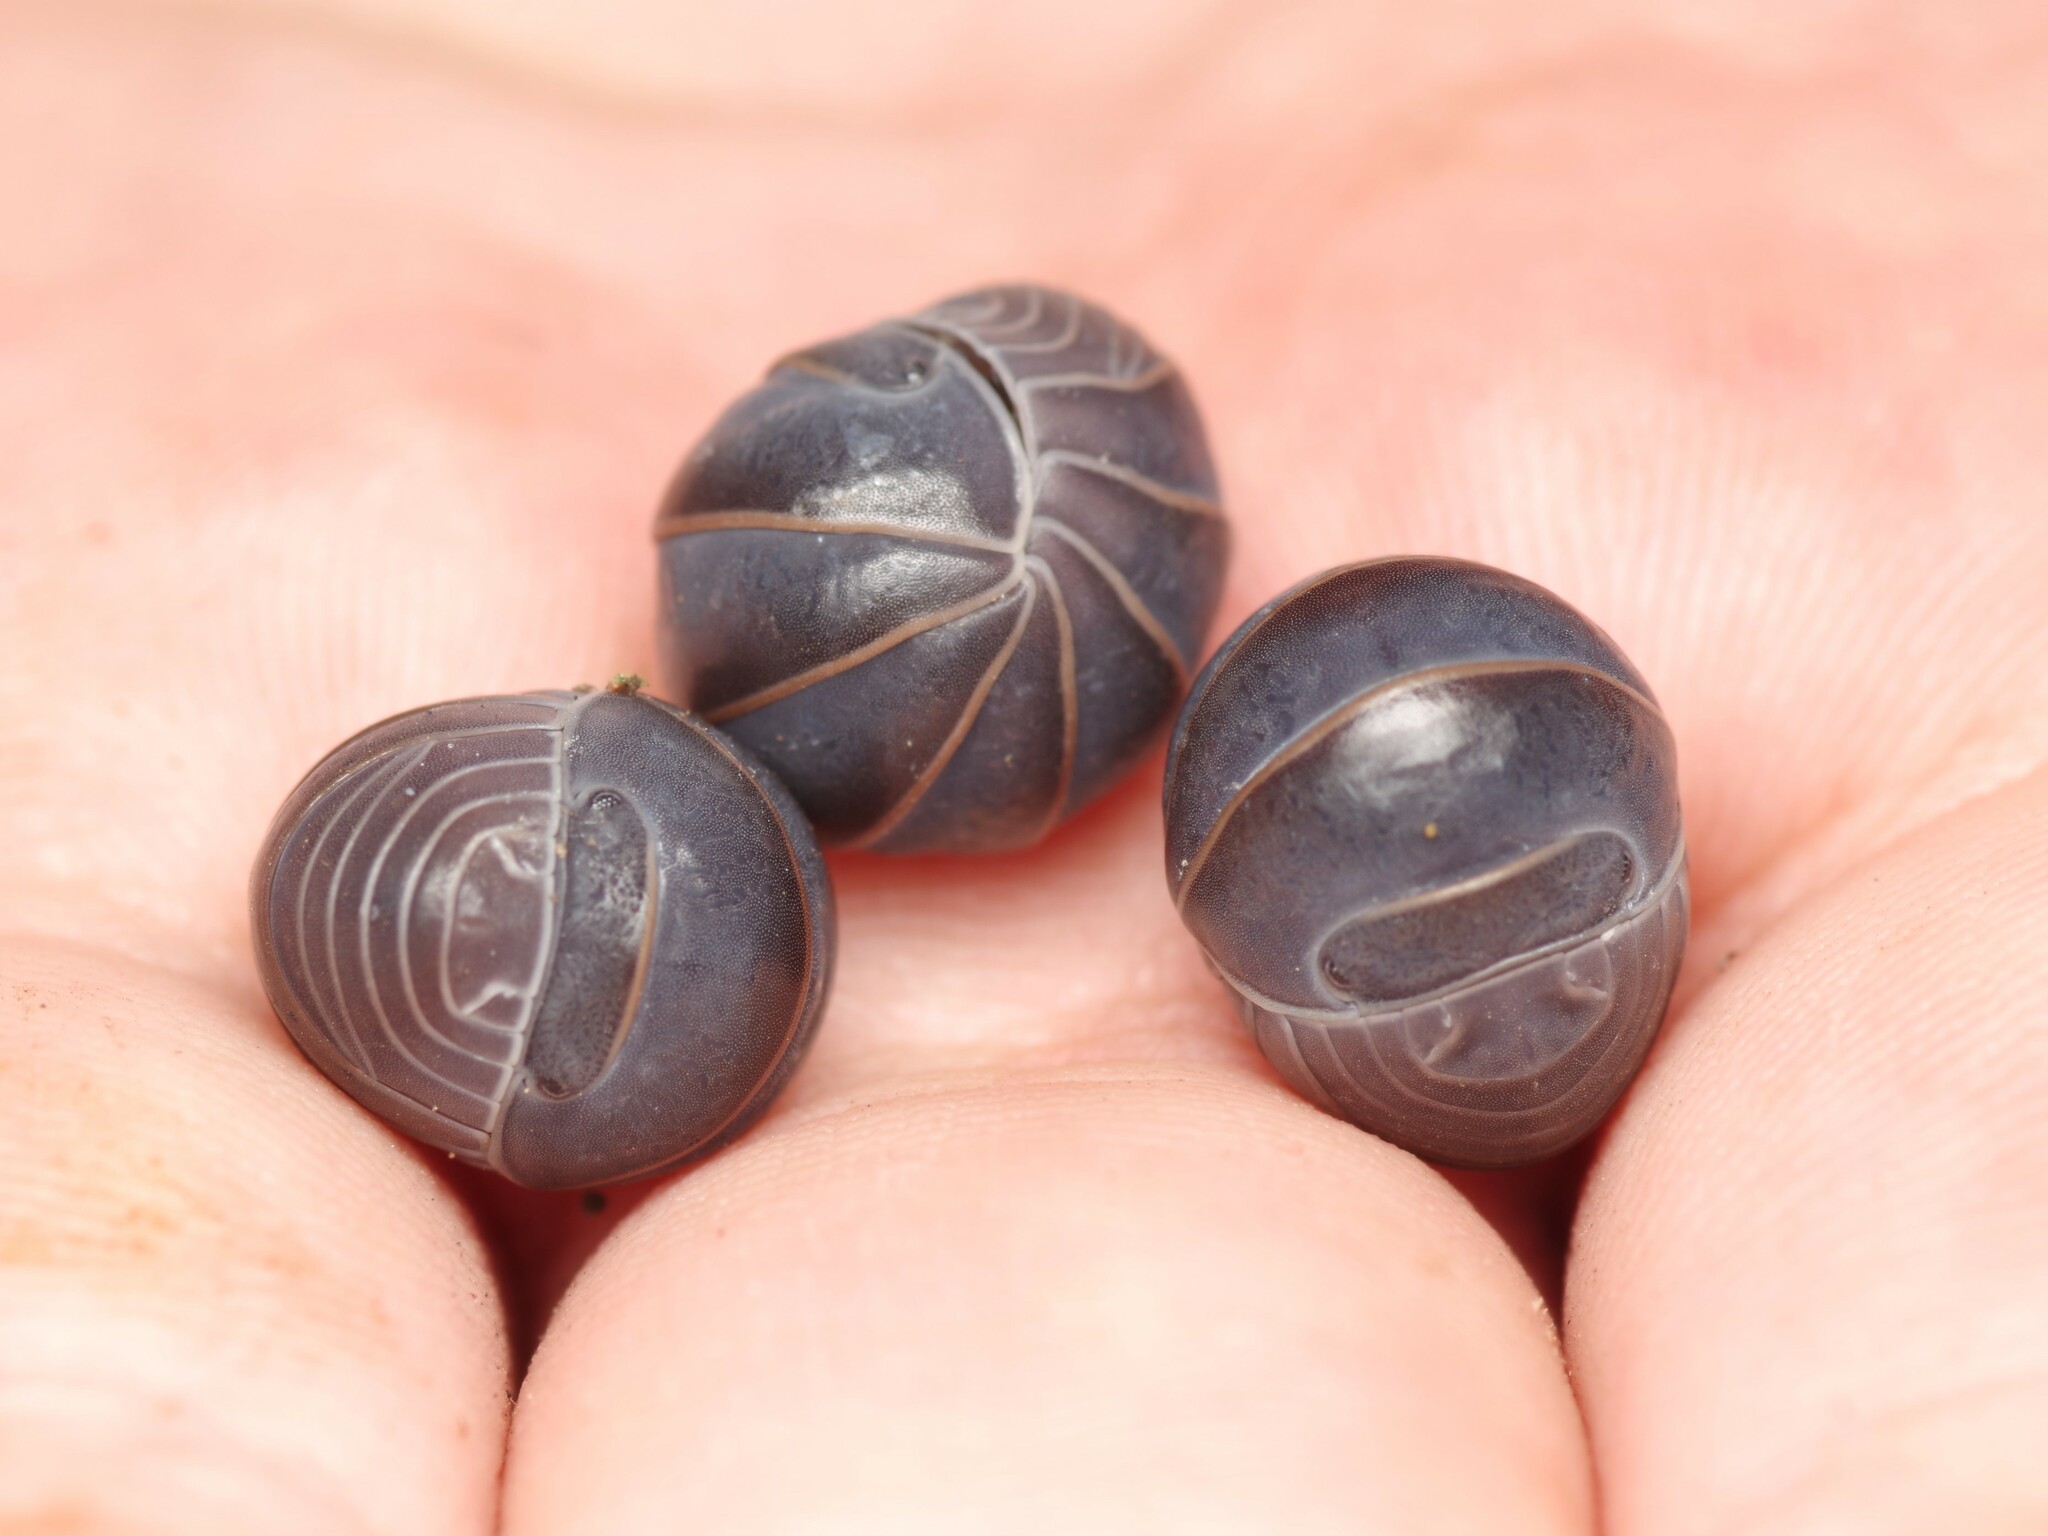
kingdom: Animalia
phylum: Arthropoda
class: Malacostraca
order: Isopoda
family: Armadillidae
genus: Armadillo
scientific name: Armadillo officinalis
